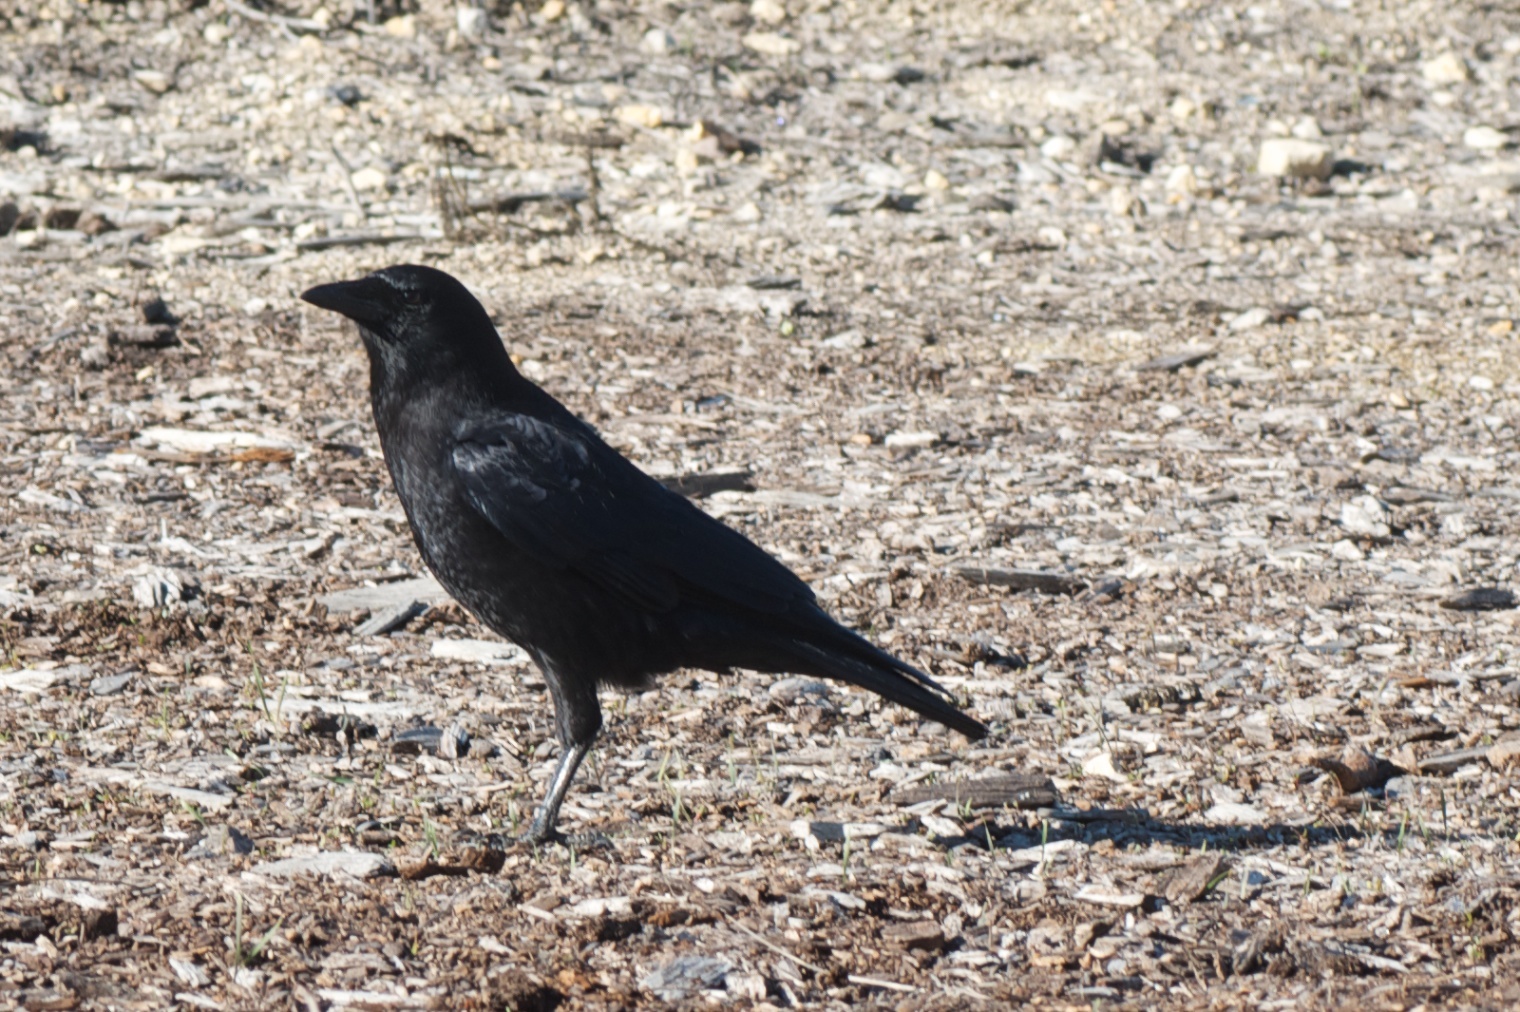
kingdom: Animalia
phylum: Chordata
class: Aves
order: Passeriformes
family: Corvidae
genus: Corvus
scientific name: Corvus brachyrhynchos
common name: American crow
